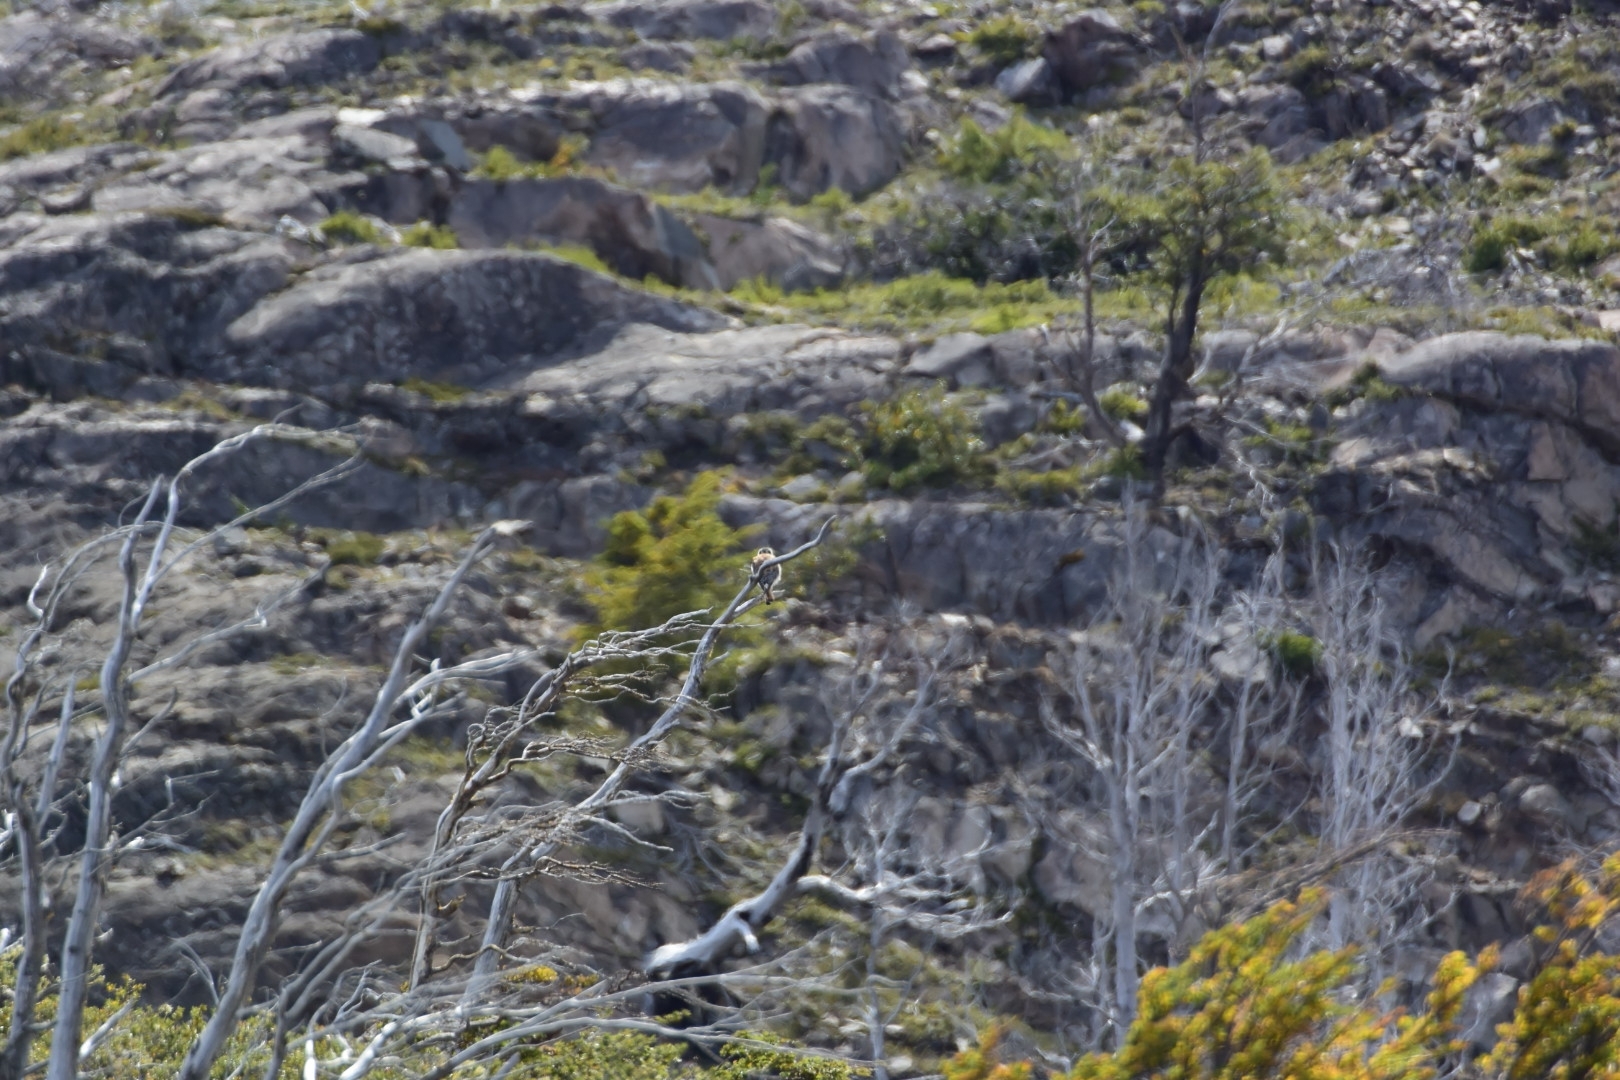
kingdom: Animalia
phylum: Chordata
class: Aves
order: Falconiformes
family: Falconidae
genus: Falco
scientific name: Falco sparverius
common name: American kestrel
